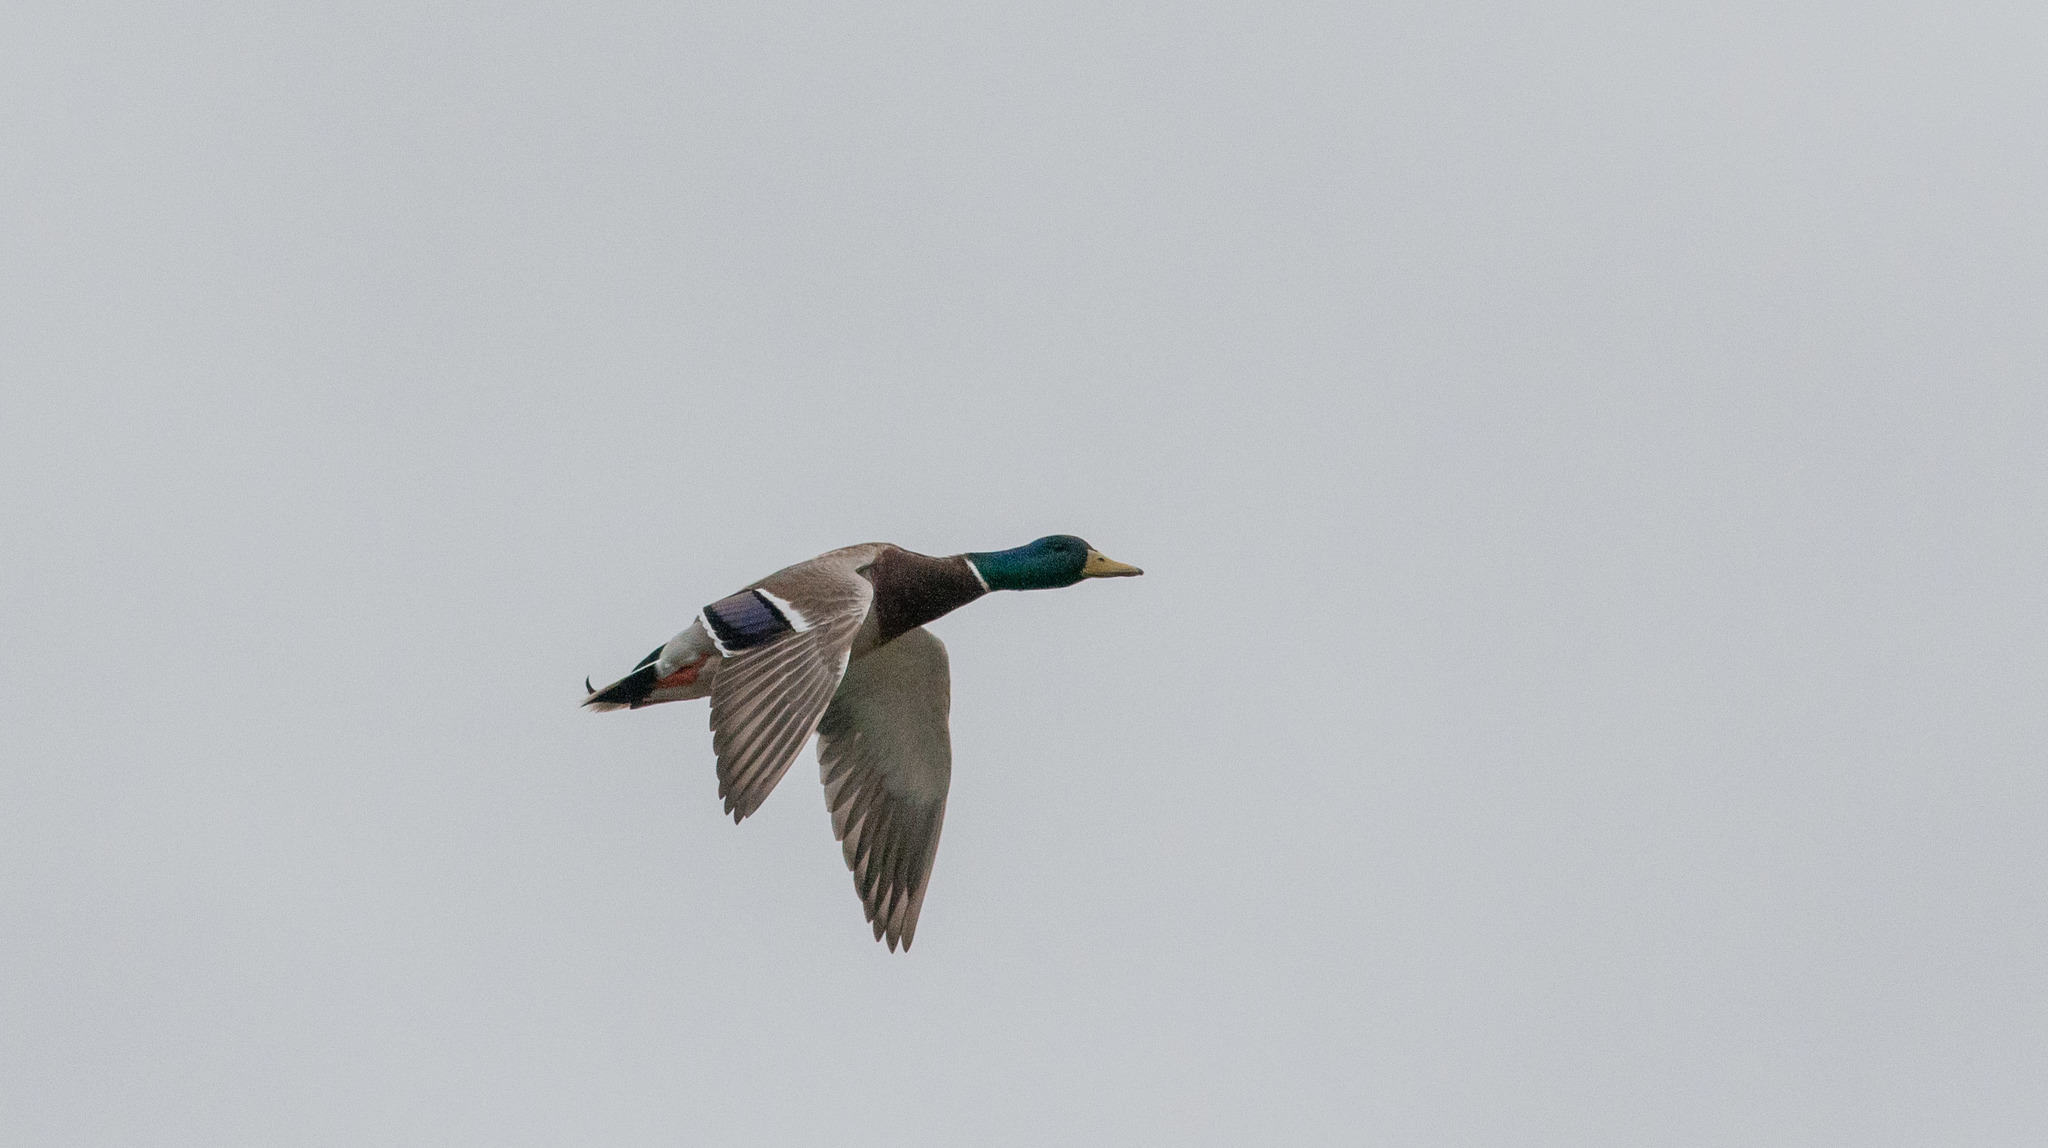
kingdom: Animalia
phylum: Chordata
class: Aves
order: Anseriformes
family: Anatidae
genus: Anas
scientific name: Anas platyrhynchos
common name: Mallard
